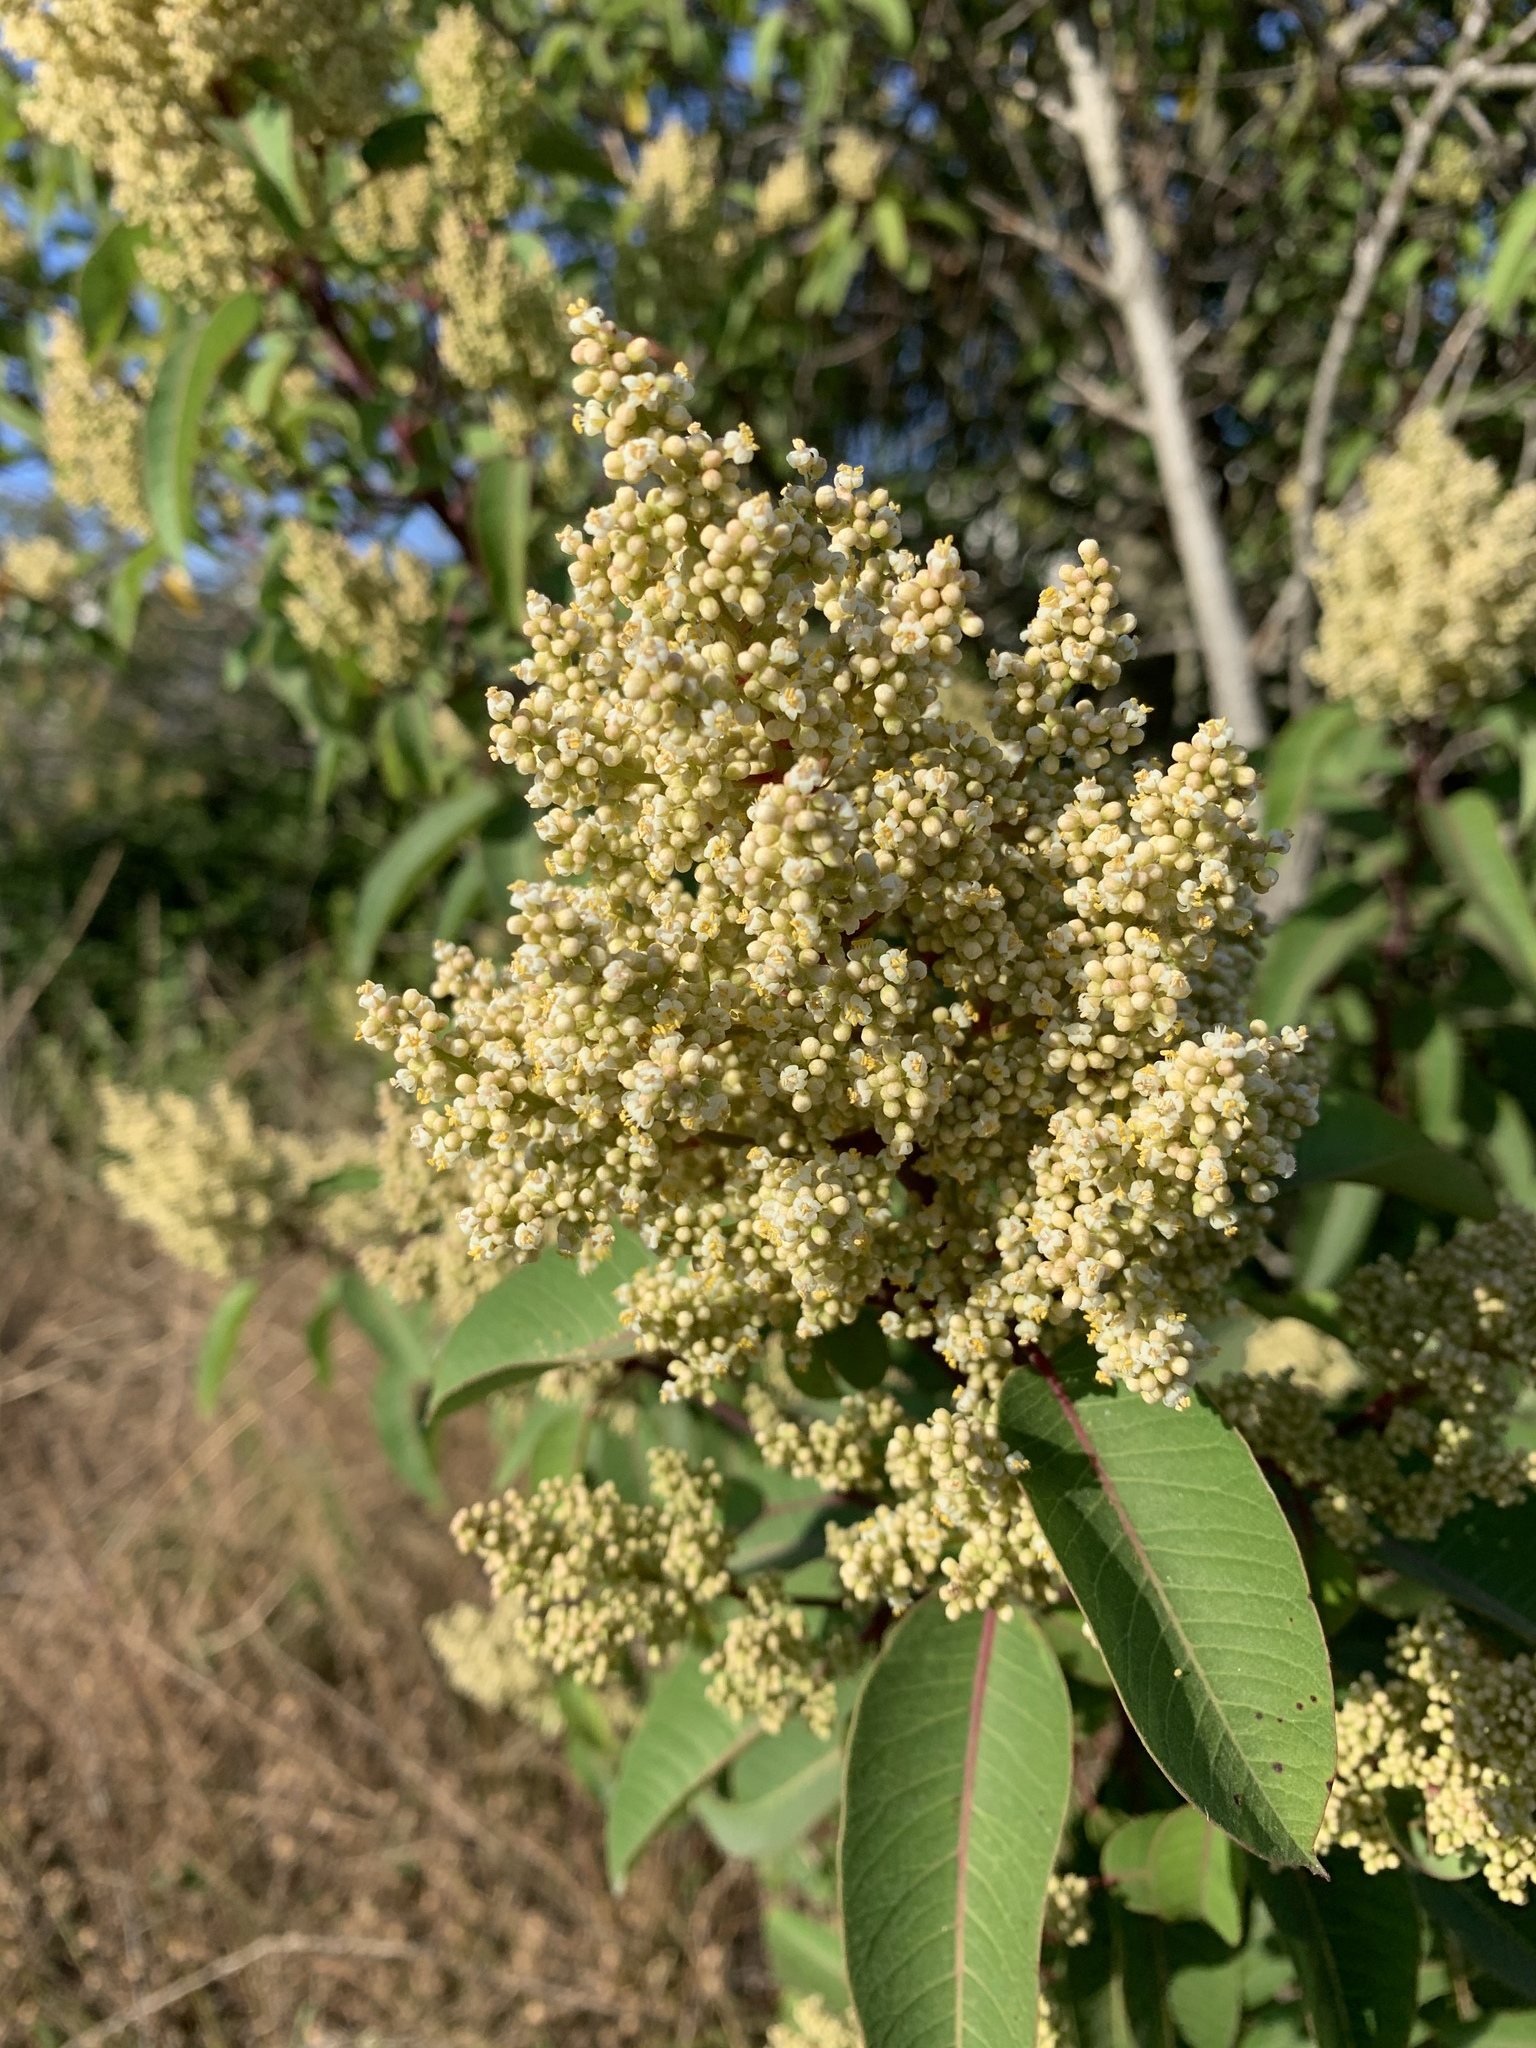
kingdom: Plantae
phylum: Tracheophyta
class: Magnoliopsida
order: Sapindales
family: Anacardiaceae
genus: Malosma
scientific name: Malosma laurina
